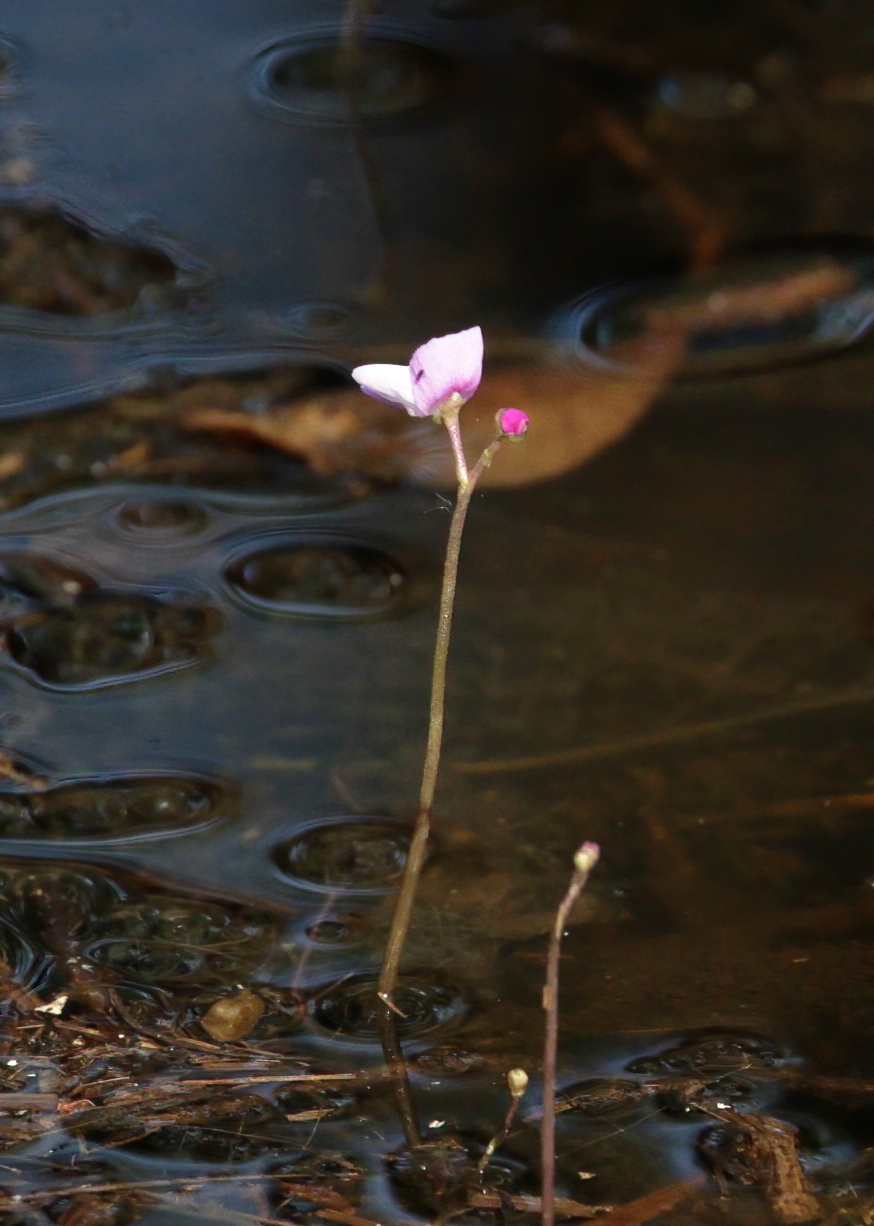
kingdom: Plantae
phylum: Tracheophyta
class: Magnoliopsida
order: Lamiales
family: Lentibulariaceae
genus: Utricularia
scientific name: Utricularia purpurea
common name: Eastern purple bladderwort
